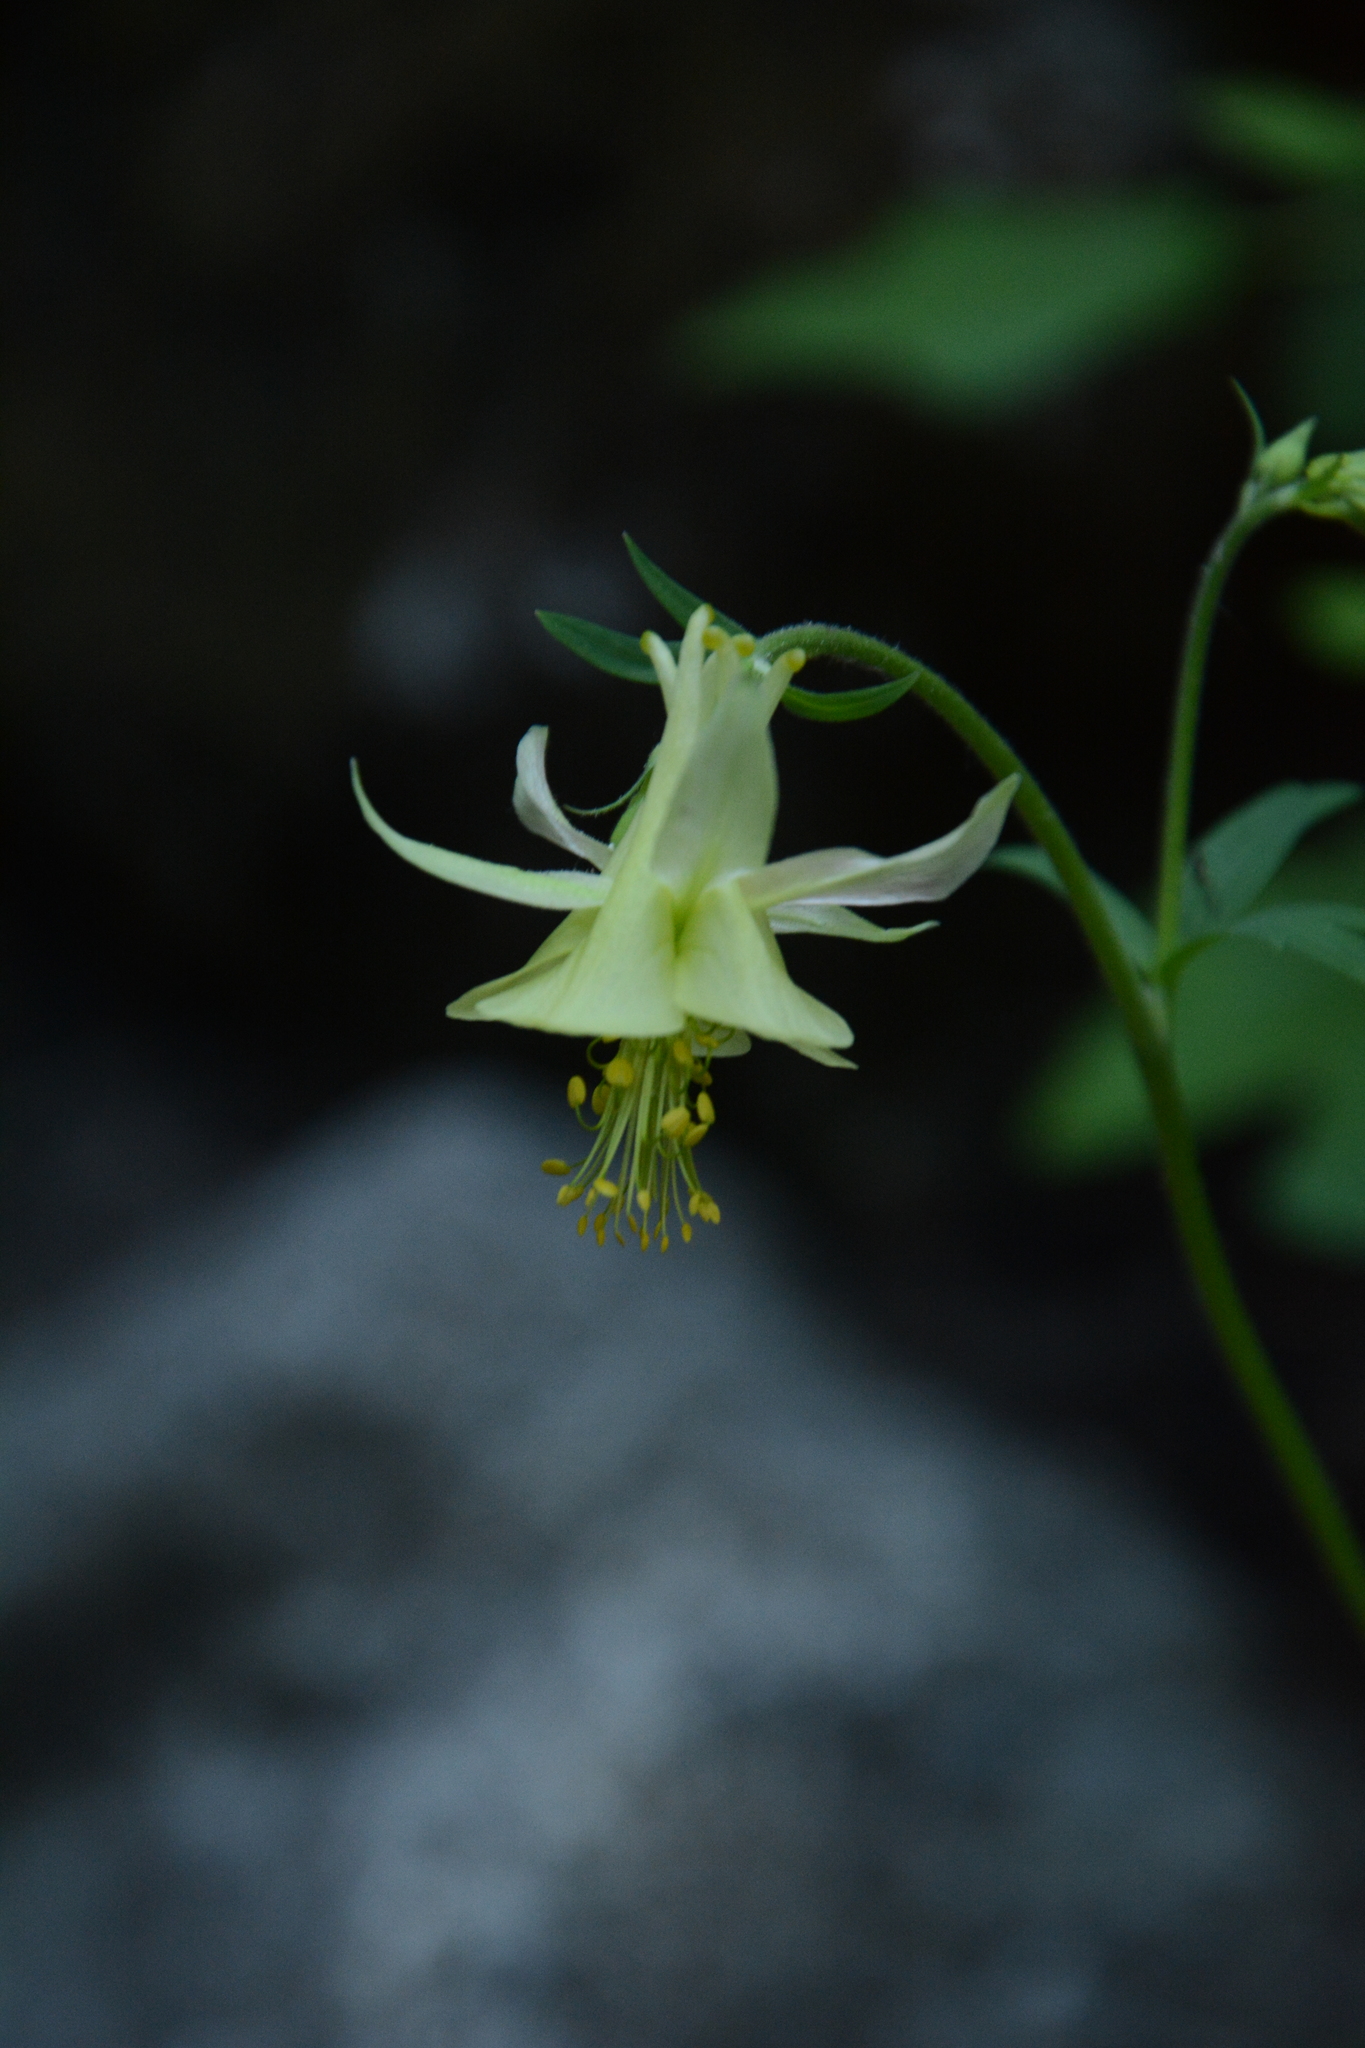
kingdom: Plantae
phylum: Tracheophyta
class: Magnoliopsida
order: Ranunculales
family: Ranunculaceae
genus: Aquilegia
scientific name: Aquilegia flavescens
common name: Yellow columbine
